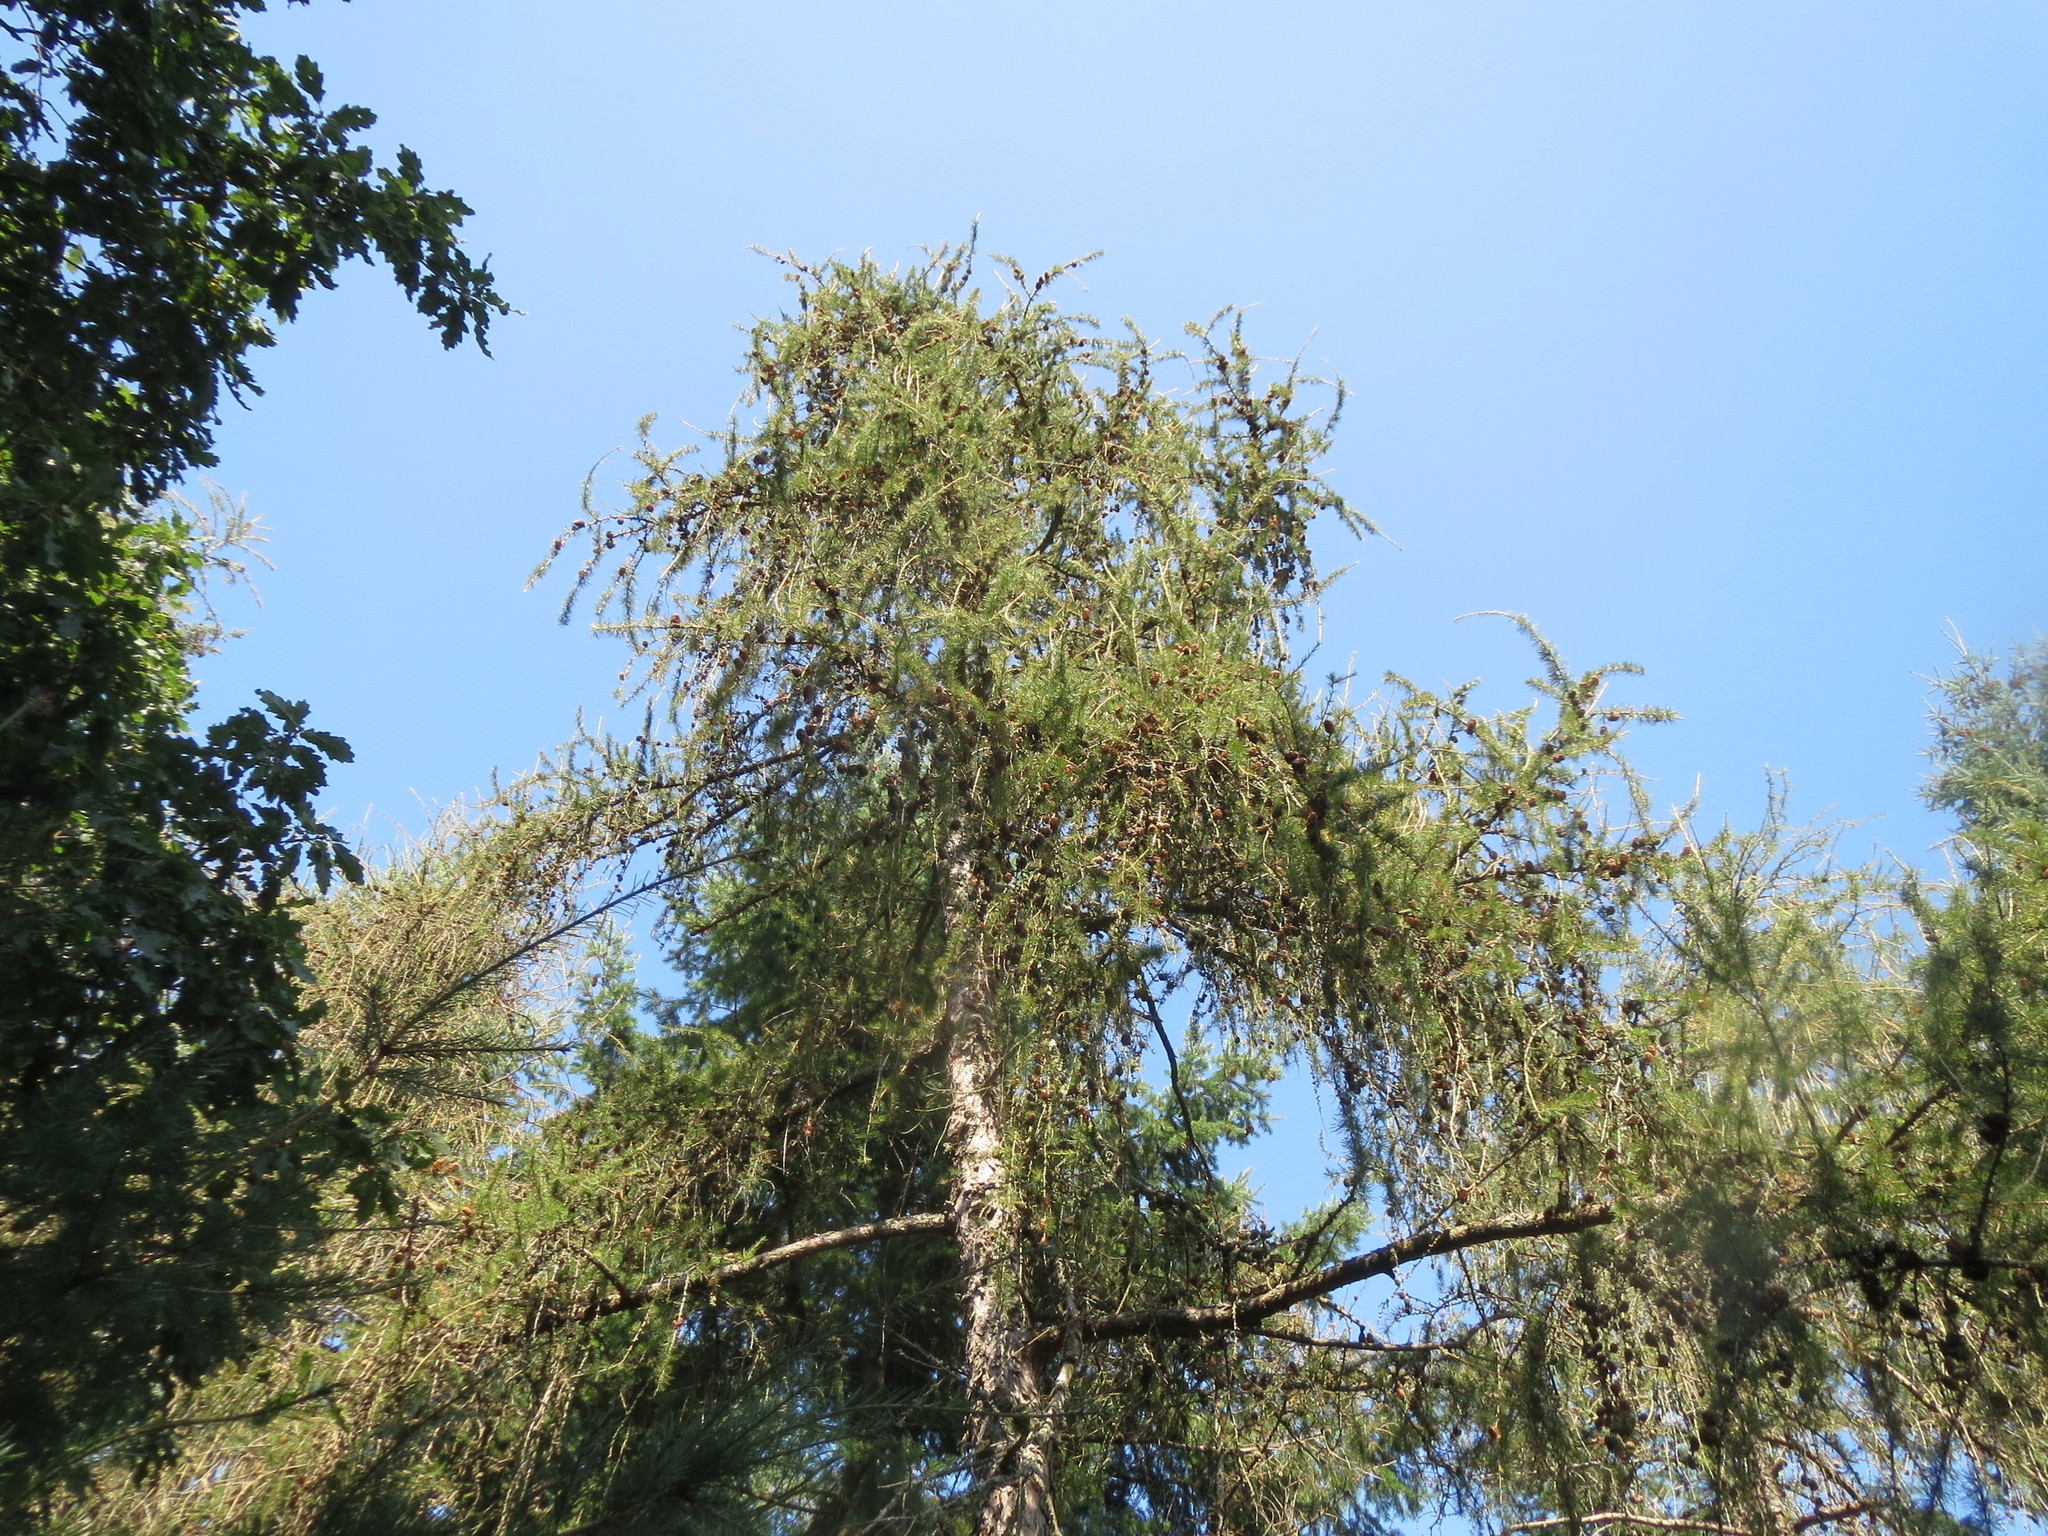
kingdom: Plantae
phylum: Tracheophyta
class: Pinopsida
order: Pinales
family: Pinaceae
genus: Larix
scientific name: Larix decidua
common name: European larch
